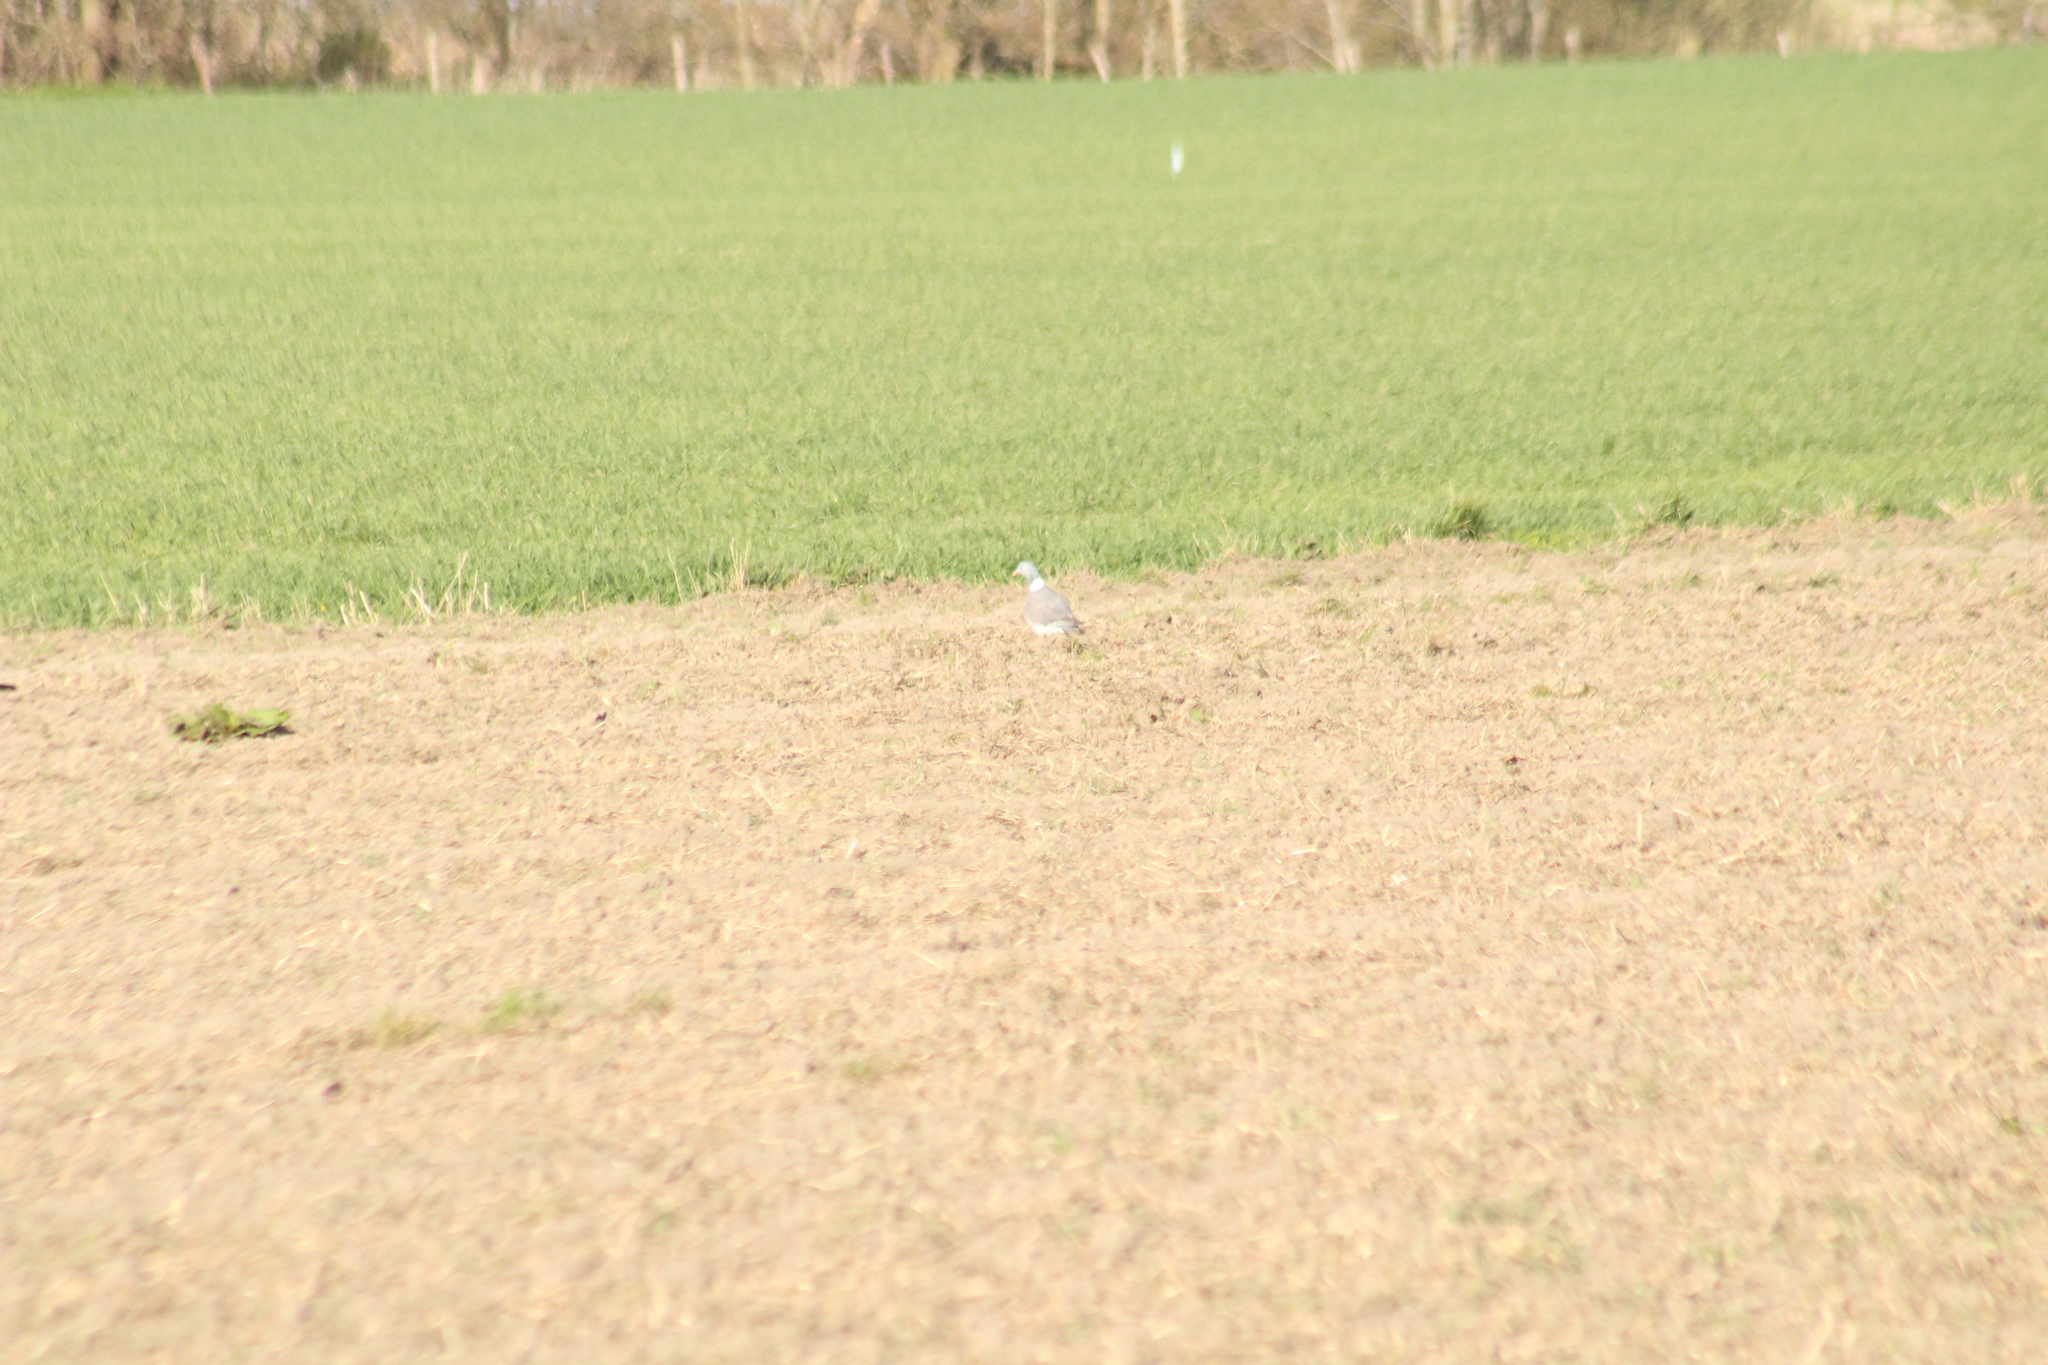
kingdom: Animalia
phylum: Chordata
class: Aves
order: Columbiformes
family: Columbidae
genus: Columba
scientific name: Columba palumbus
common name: Common wood pigeon
